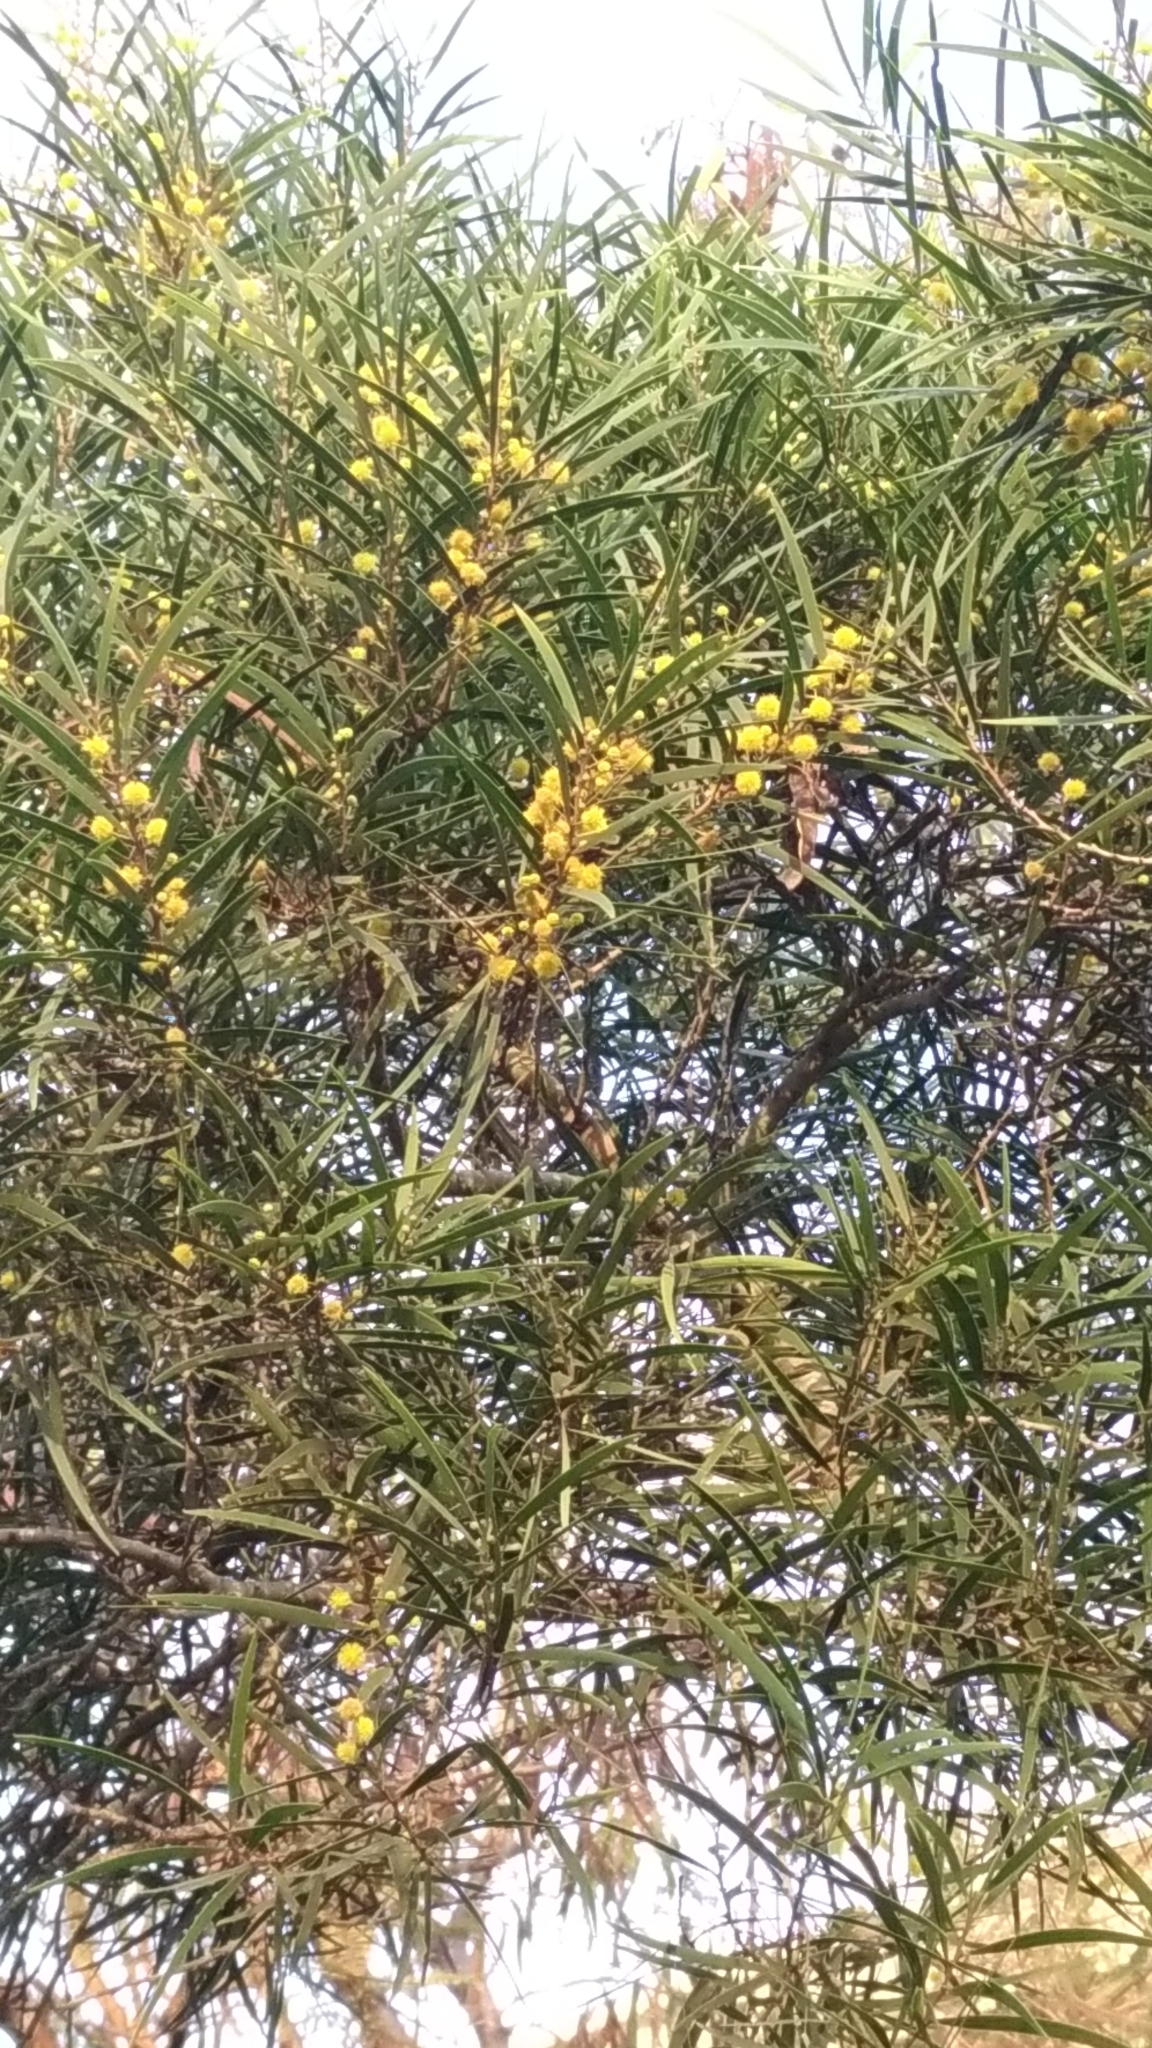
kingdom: Plantae
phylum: Tracheophyta
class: Magnoliopsida
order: Fabales
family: Fabaceae
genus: Acacia
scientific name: Acacia confusa
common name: Formosan koa
